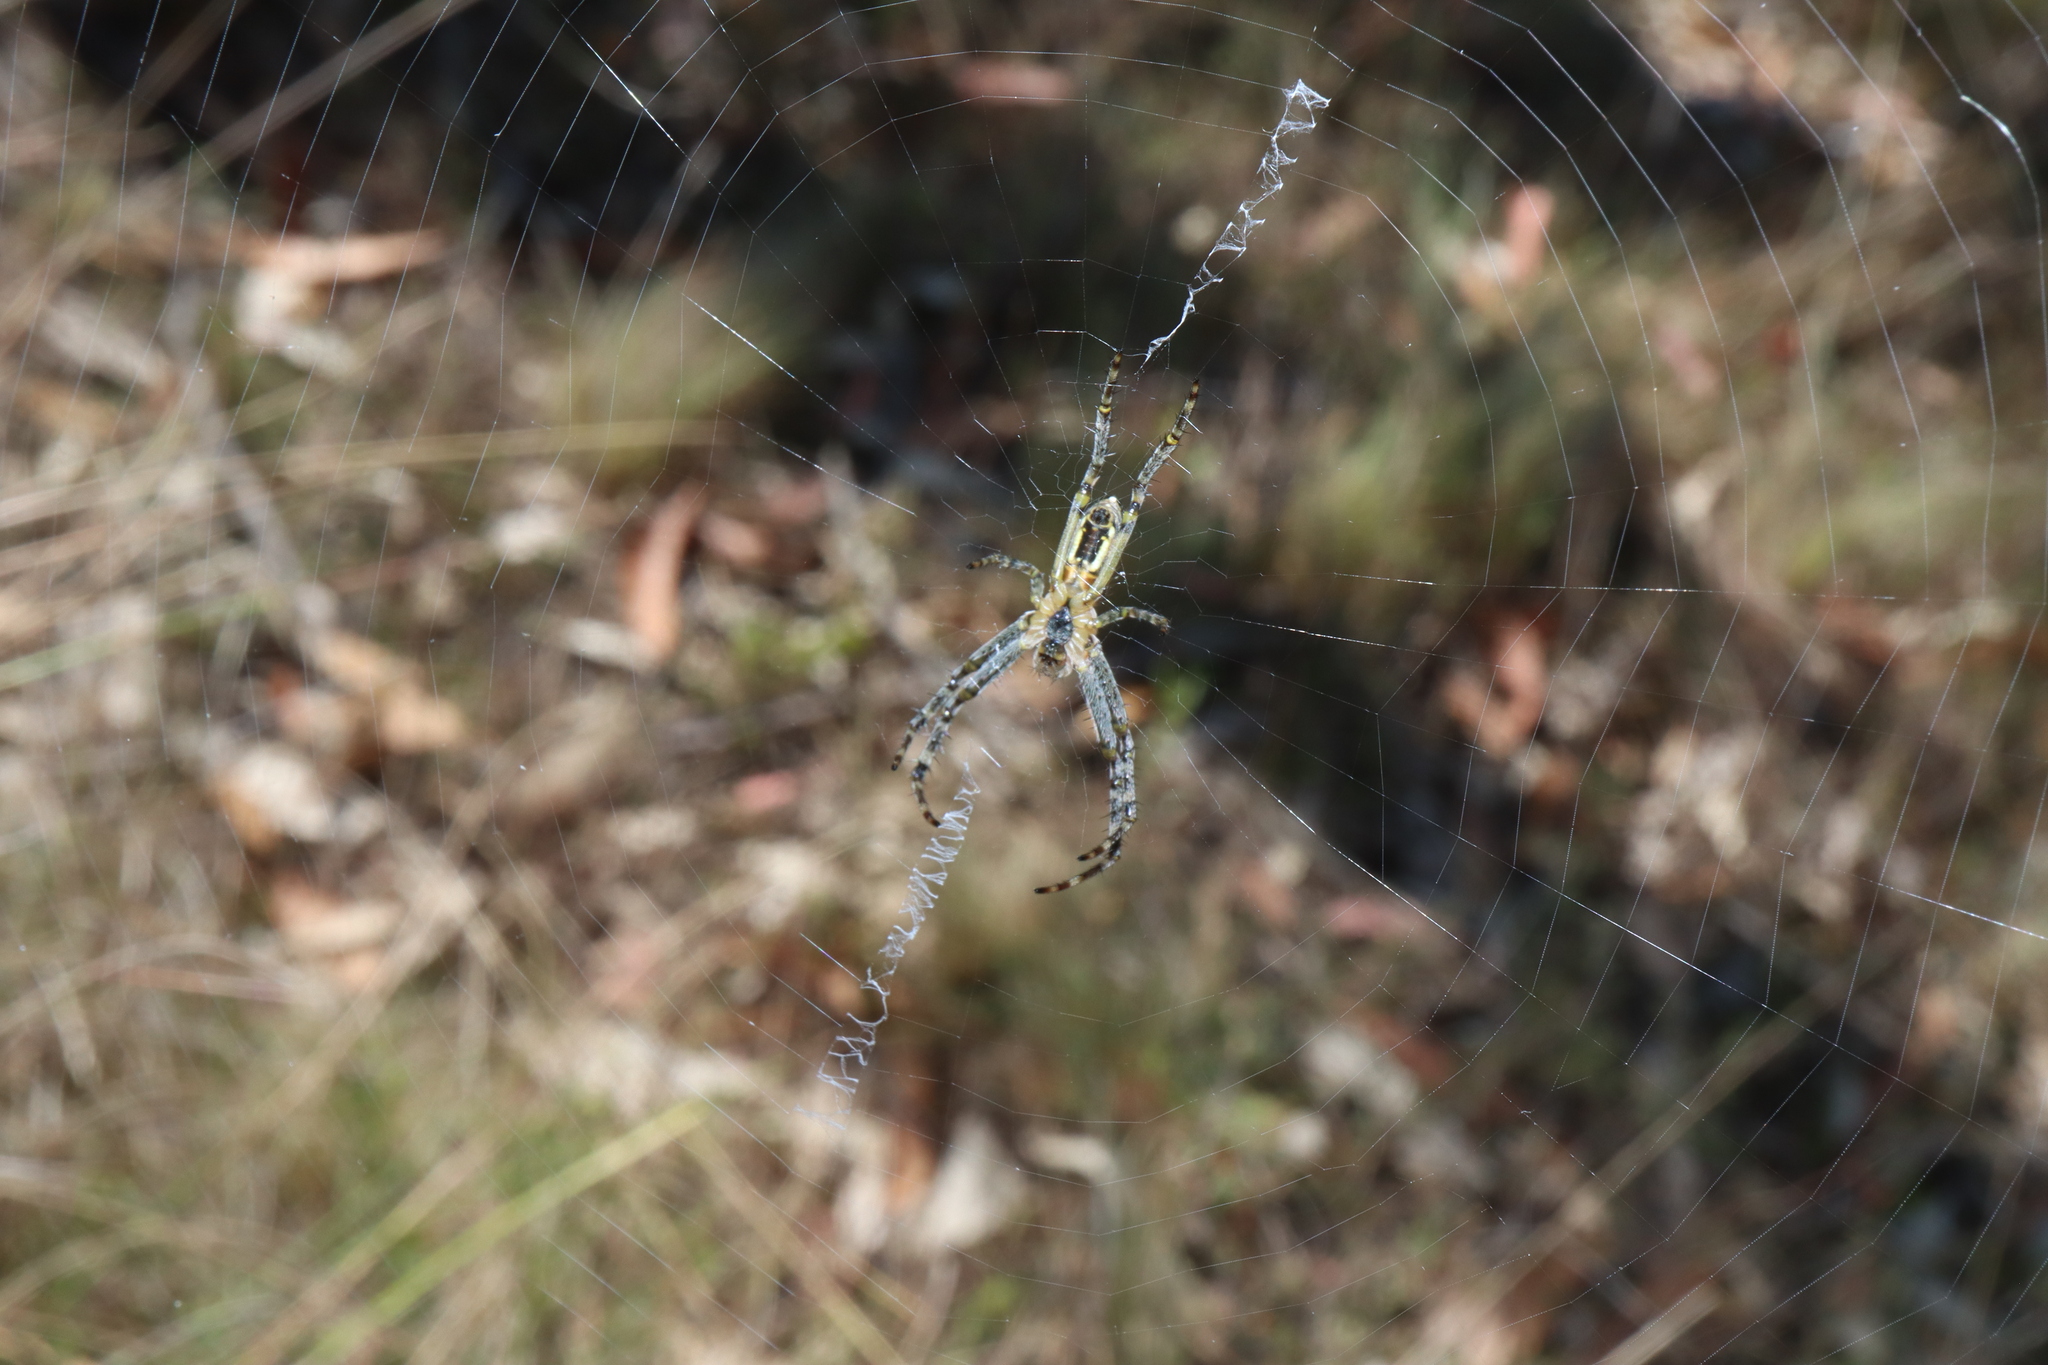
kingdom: Animalia
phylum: Arthropoda
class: Arachnida
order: Araneae
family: Araneidae
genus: Plebs
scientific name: Plebs bradleyi
